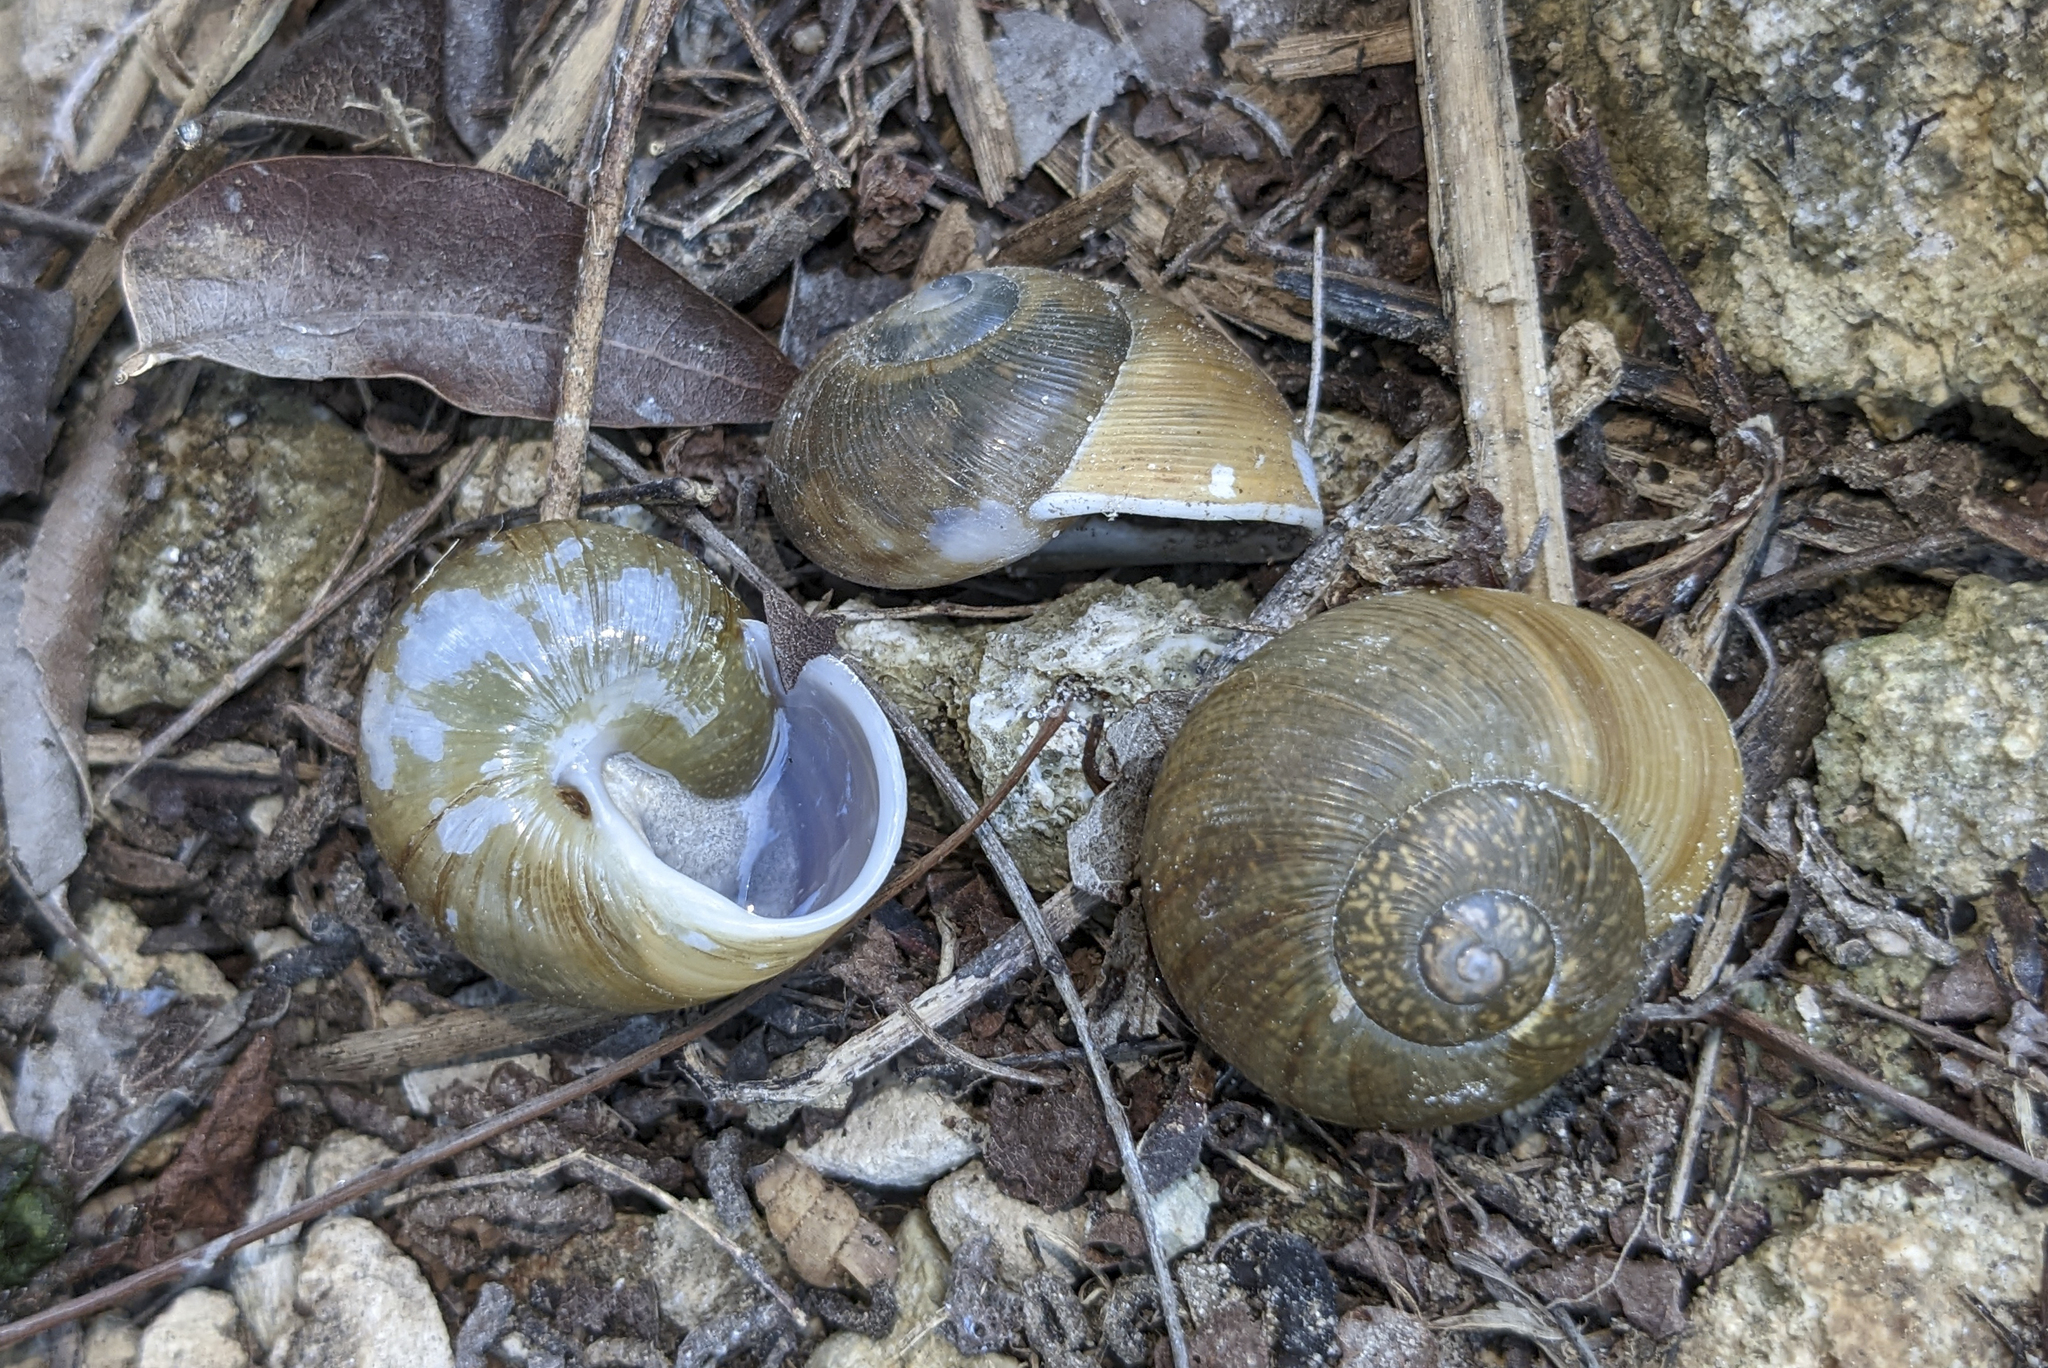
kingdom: Animalia
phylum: Mollusca
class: Gastropoda
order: Stylommatophora
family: Zachrysiidae
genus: Zachrysia
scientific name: Zachrysia provisoria
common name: Garden zachrysia
